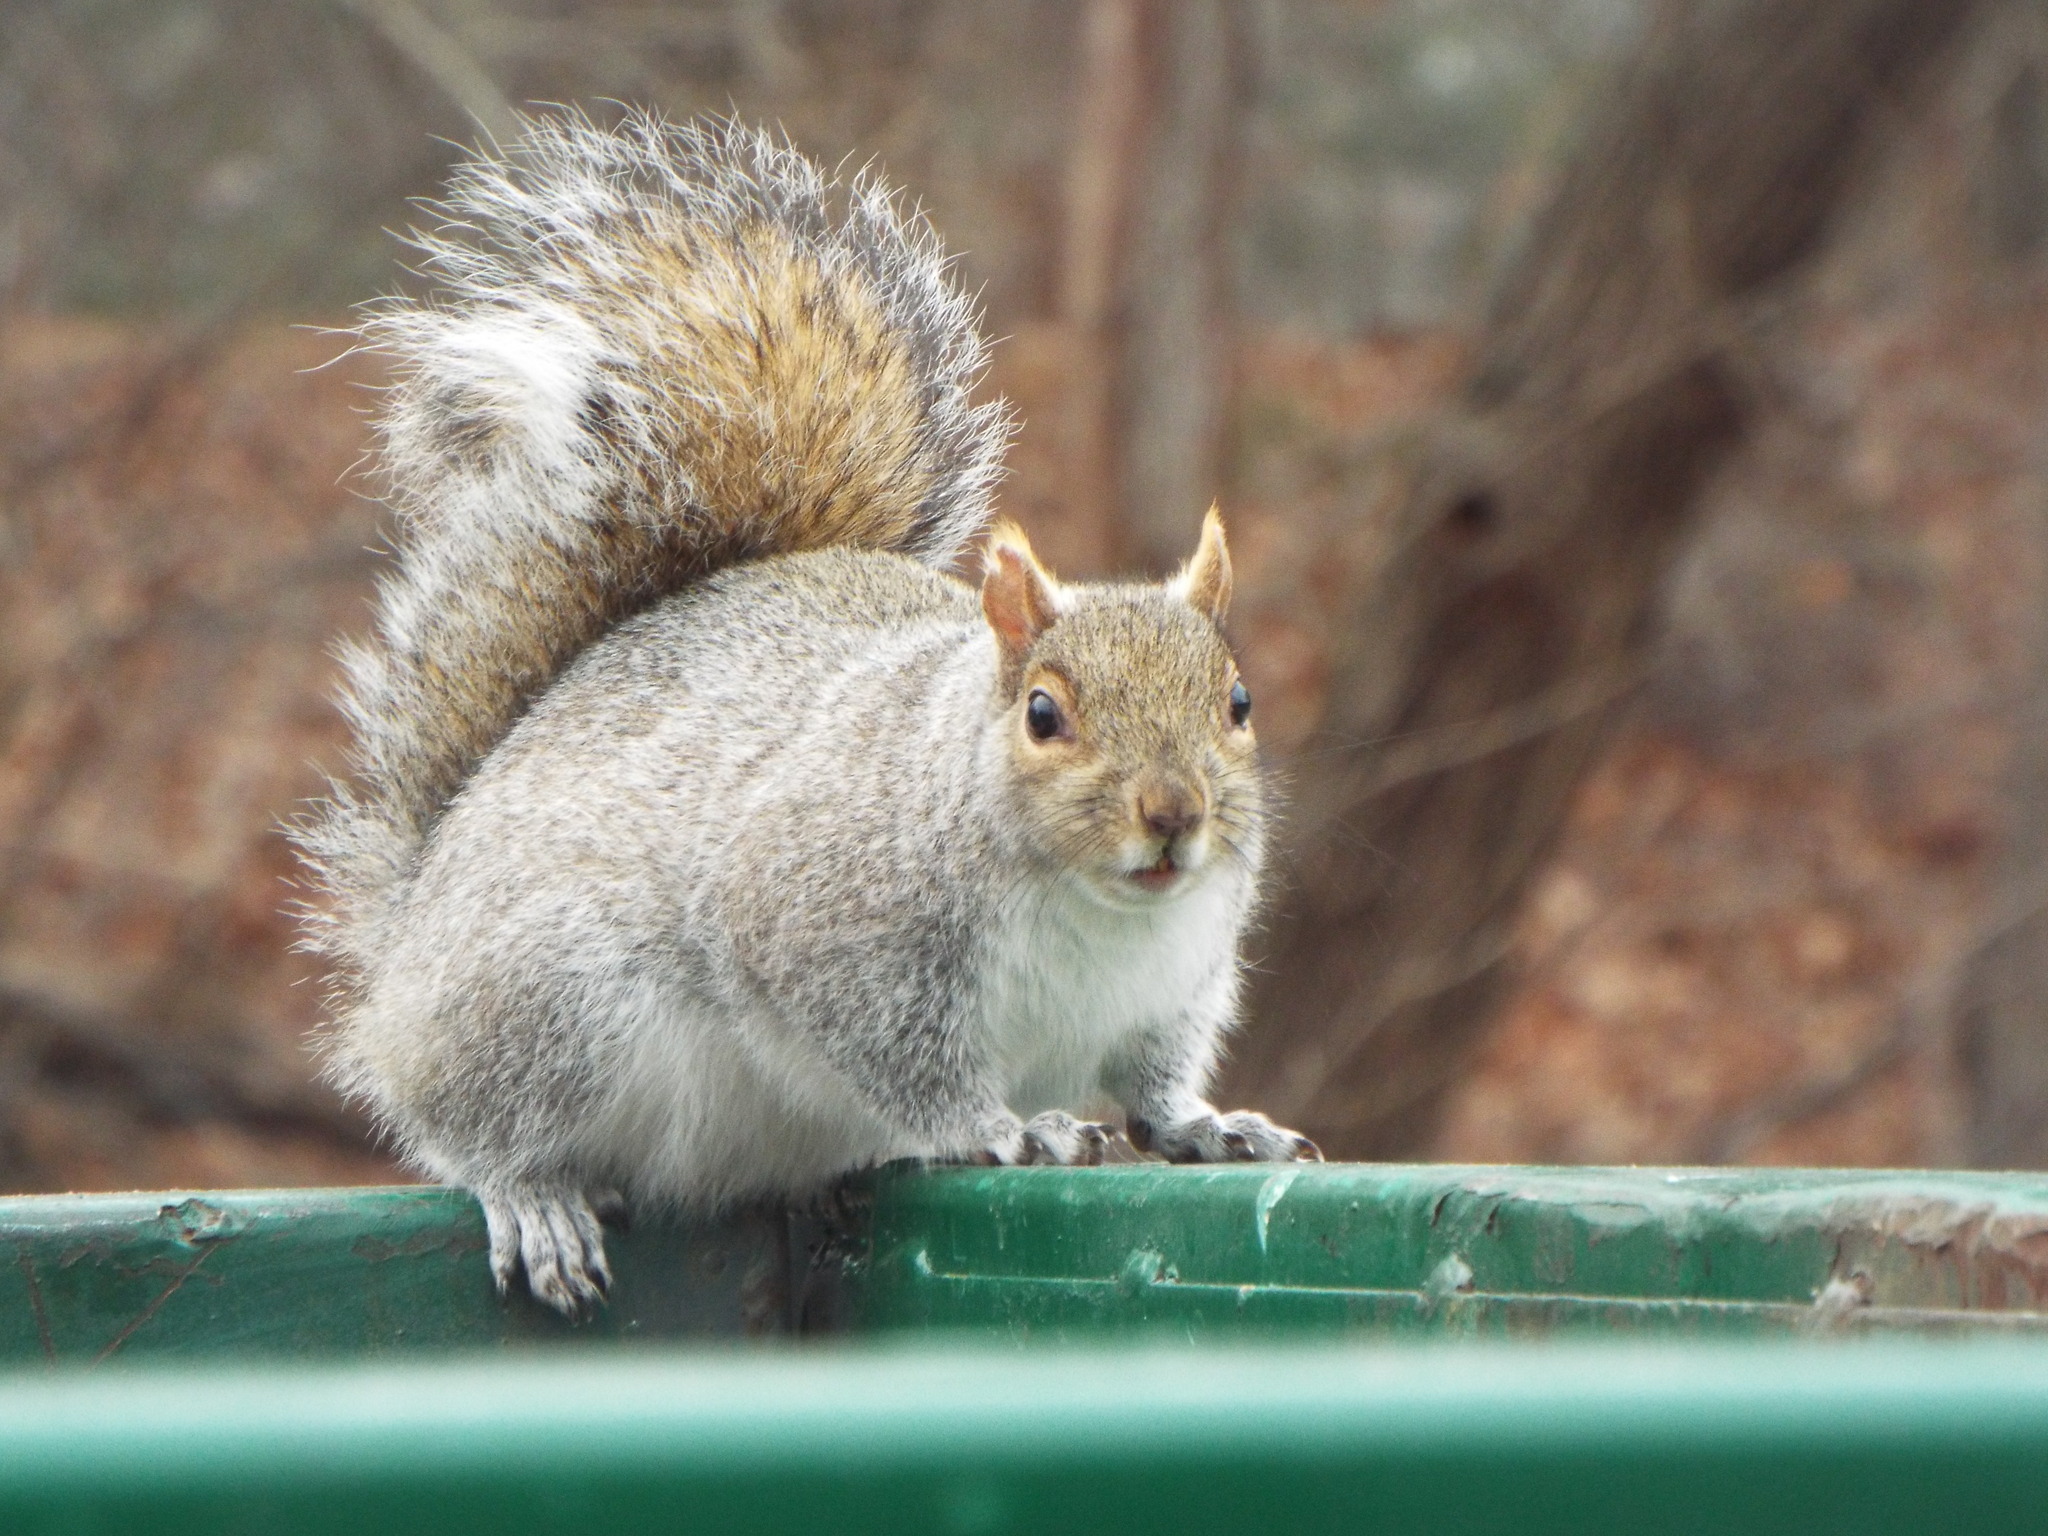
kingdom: Animalia
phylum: Chordata
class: Mammalia
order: Rodentia
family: Sciuridae
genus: Sciurus
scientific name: Sciurus carolinensis
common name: Eastern gray squirrel
